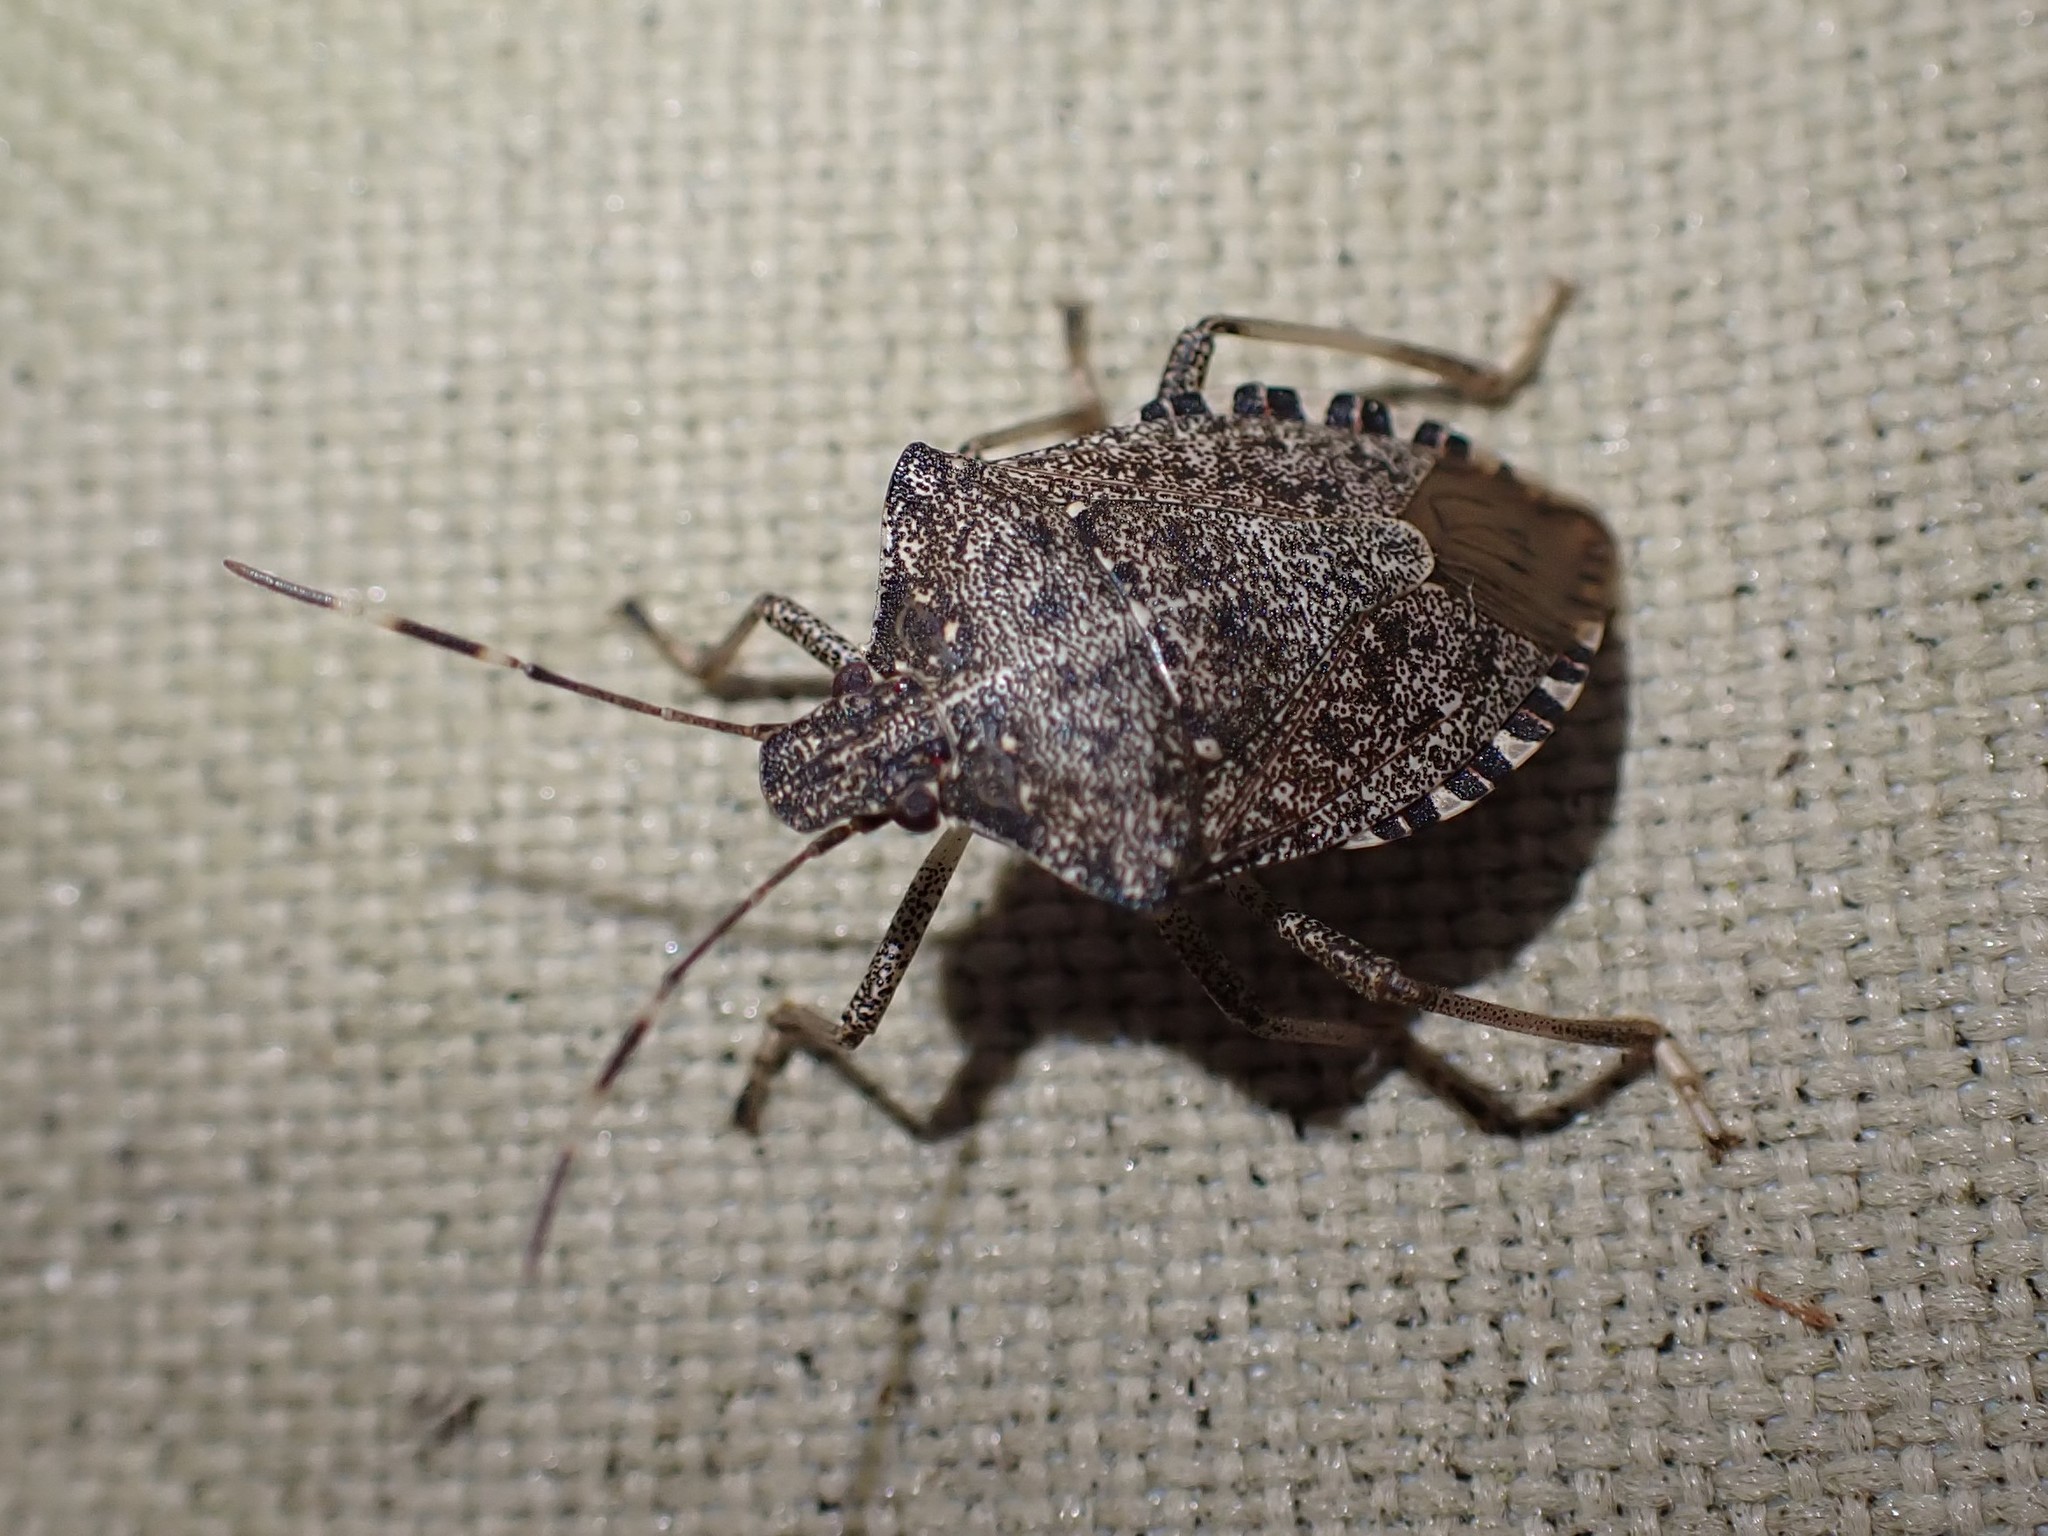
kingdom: Animalia
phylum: Arthropoda
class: Insecta
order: Hemiptera
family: Pentatomidae
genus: Halyomorpha
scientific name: Halyomorpha halys
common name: Brown marmorated stink bug
